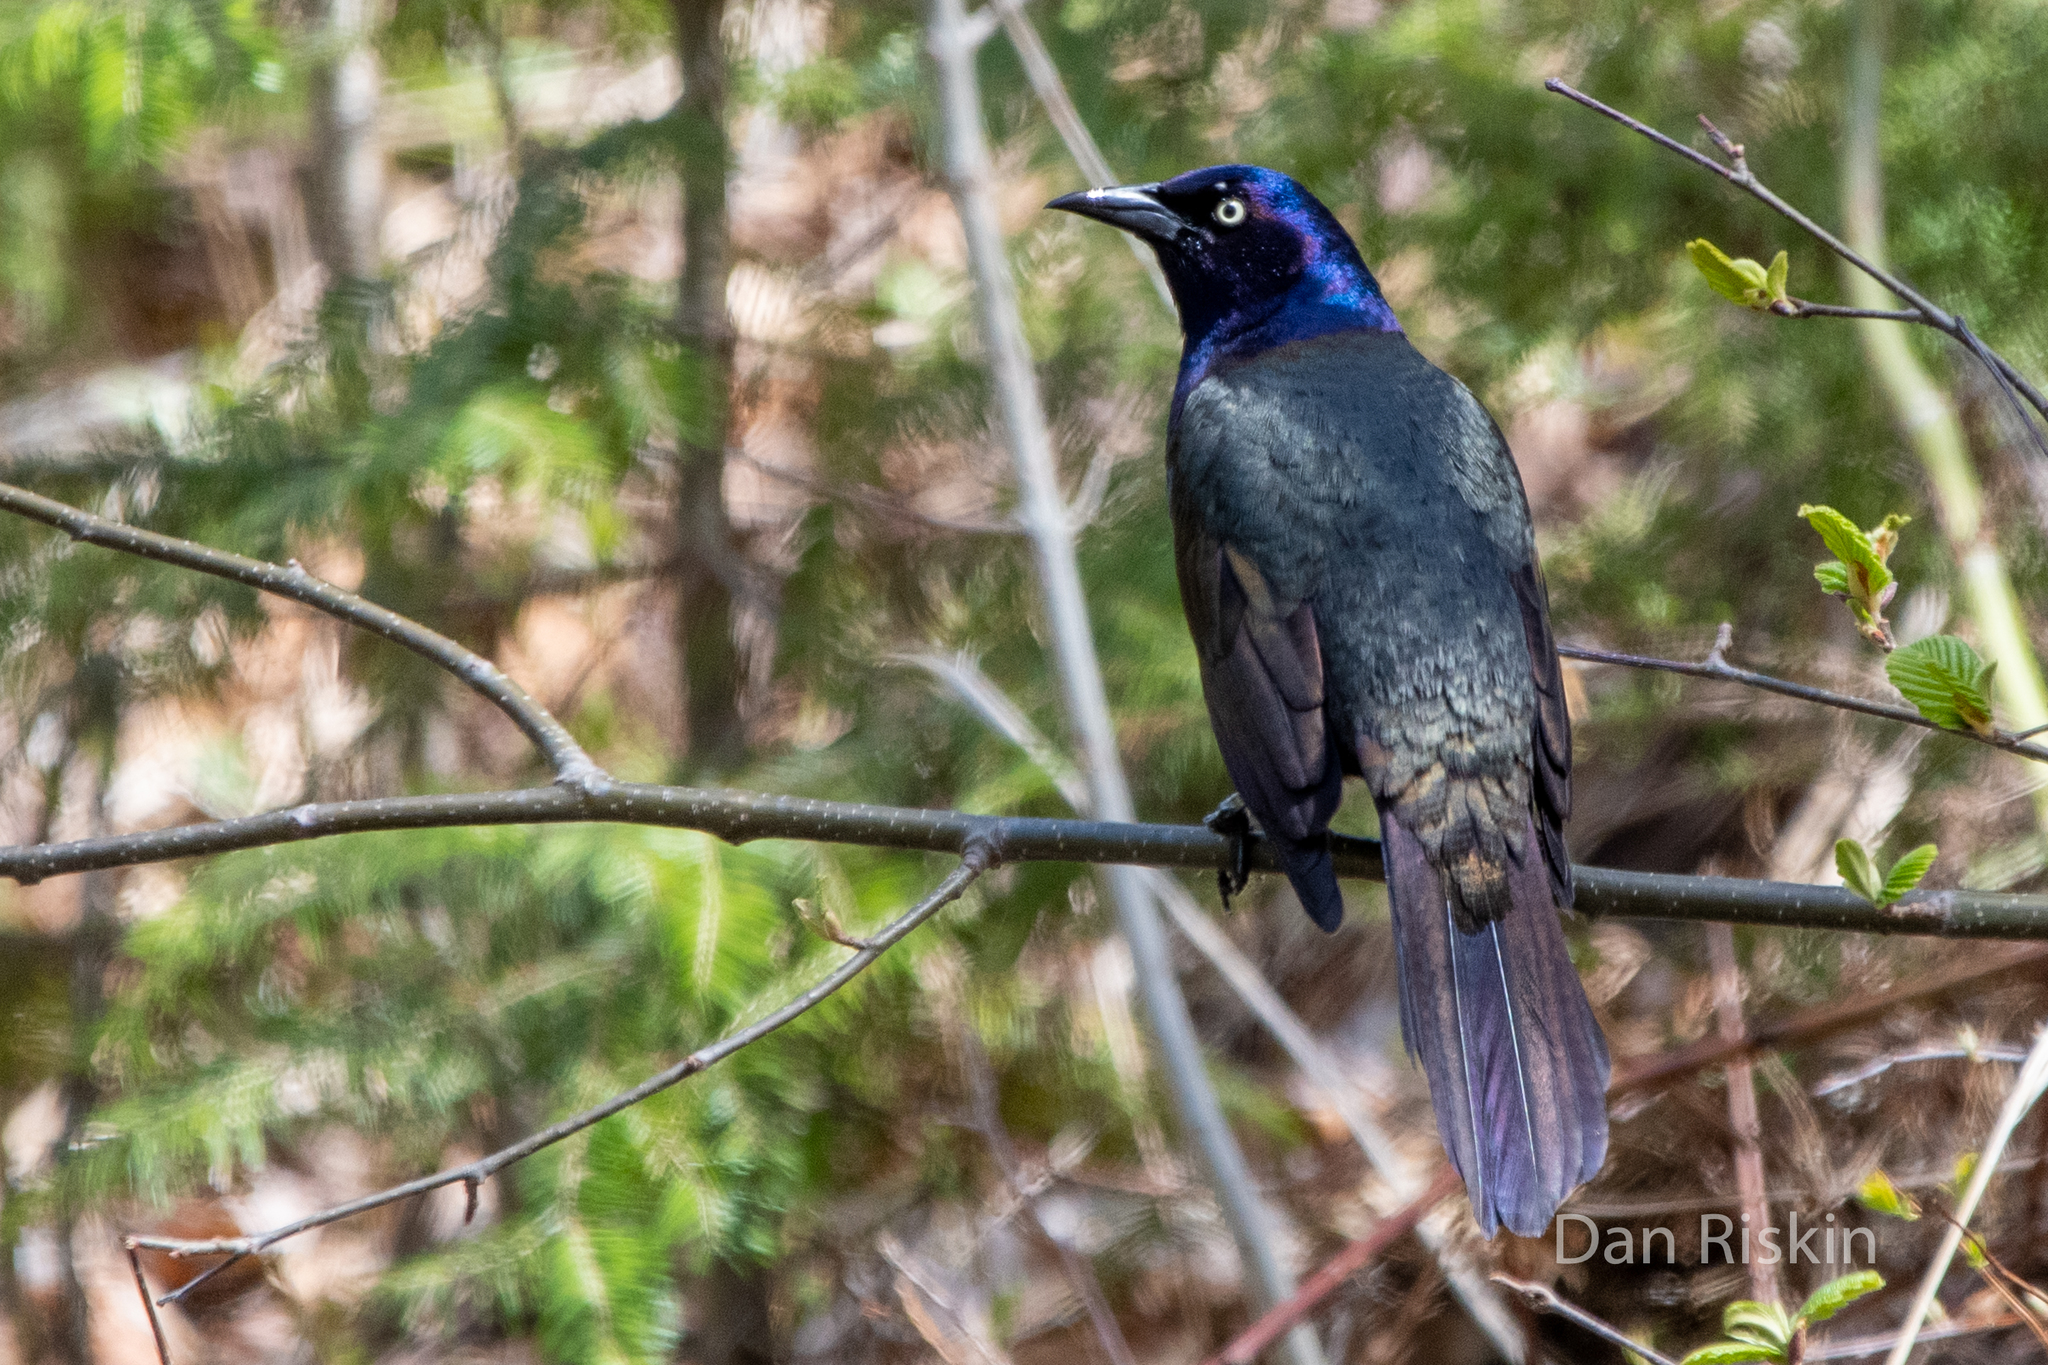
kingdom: Animalia
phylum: Chordata
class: Aves
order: Passeriformes
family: Icteridae
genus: Quiscalus
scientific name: Quiscalus quiscula
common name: Common grackle
